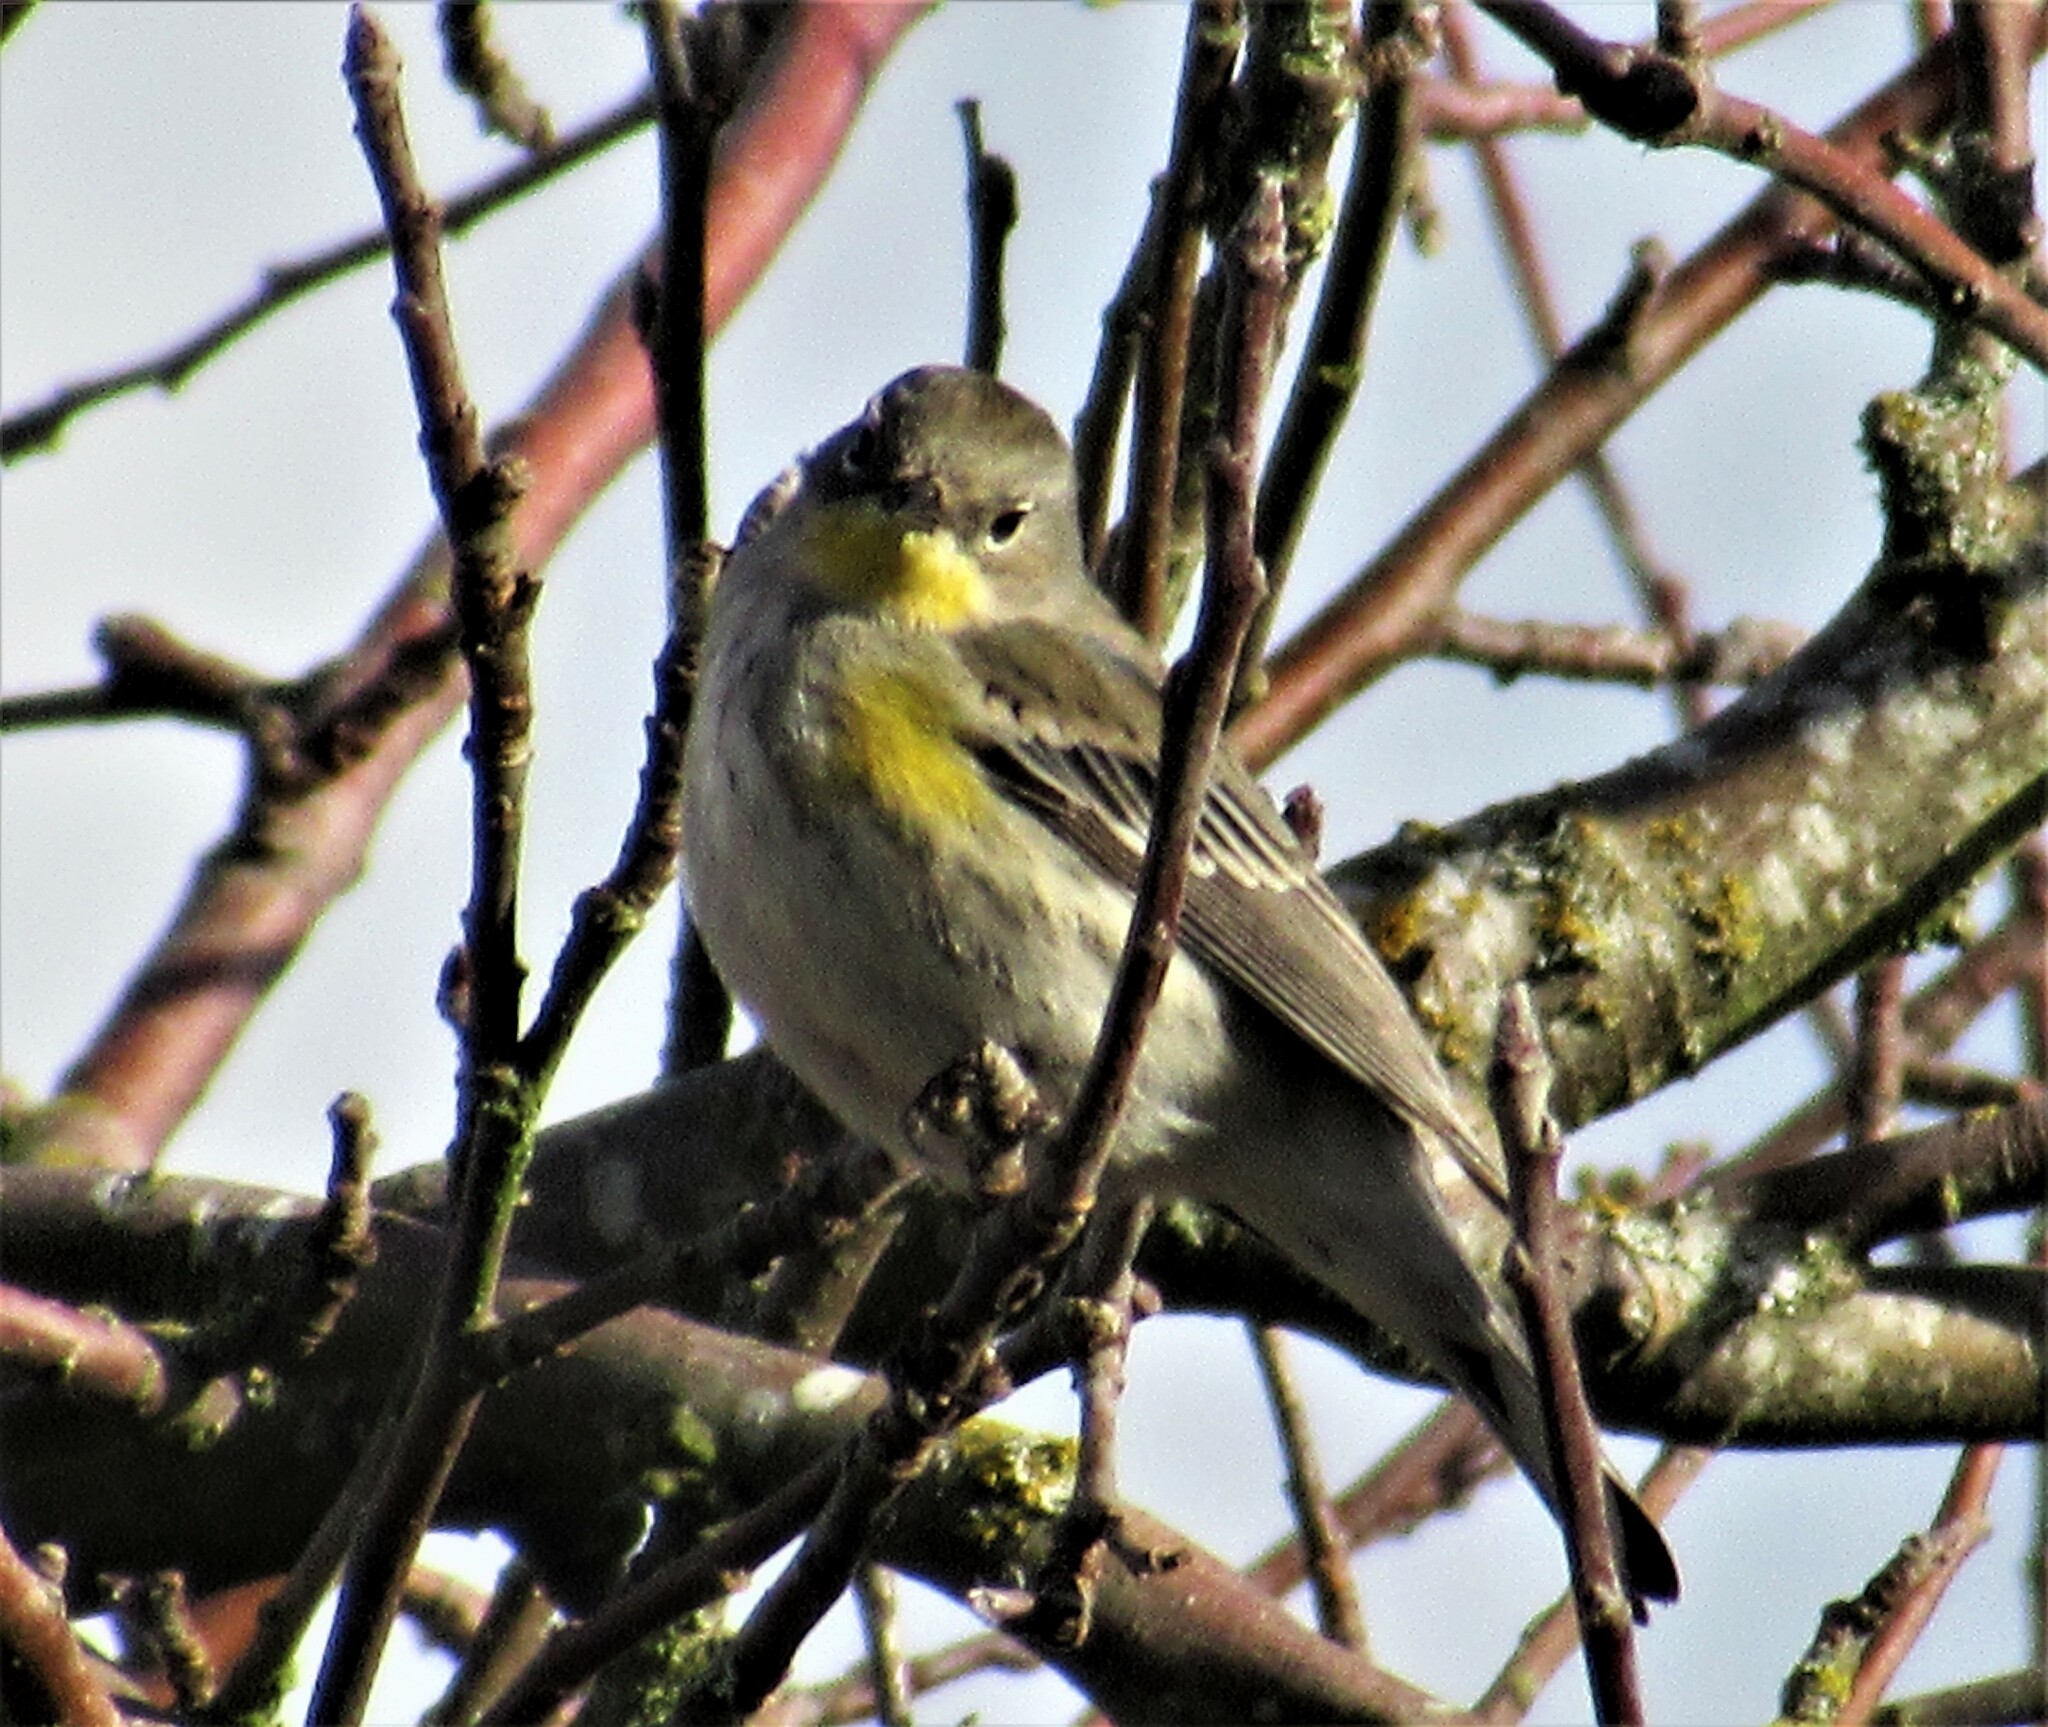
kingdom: Animalia
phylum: Chordata
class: Aves
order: Passeriformes
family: Parulidae
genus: Setophaga
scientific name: Setophaga auduboni
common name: Audubon's warbler
